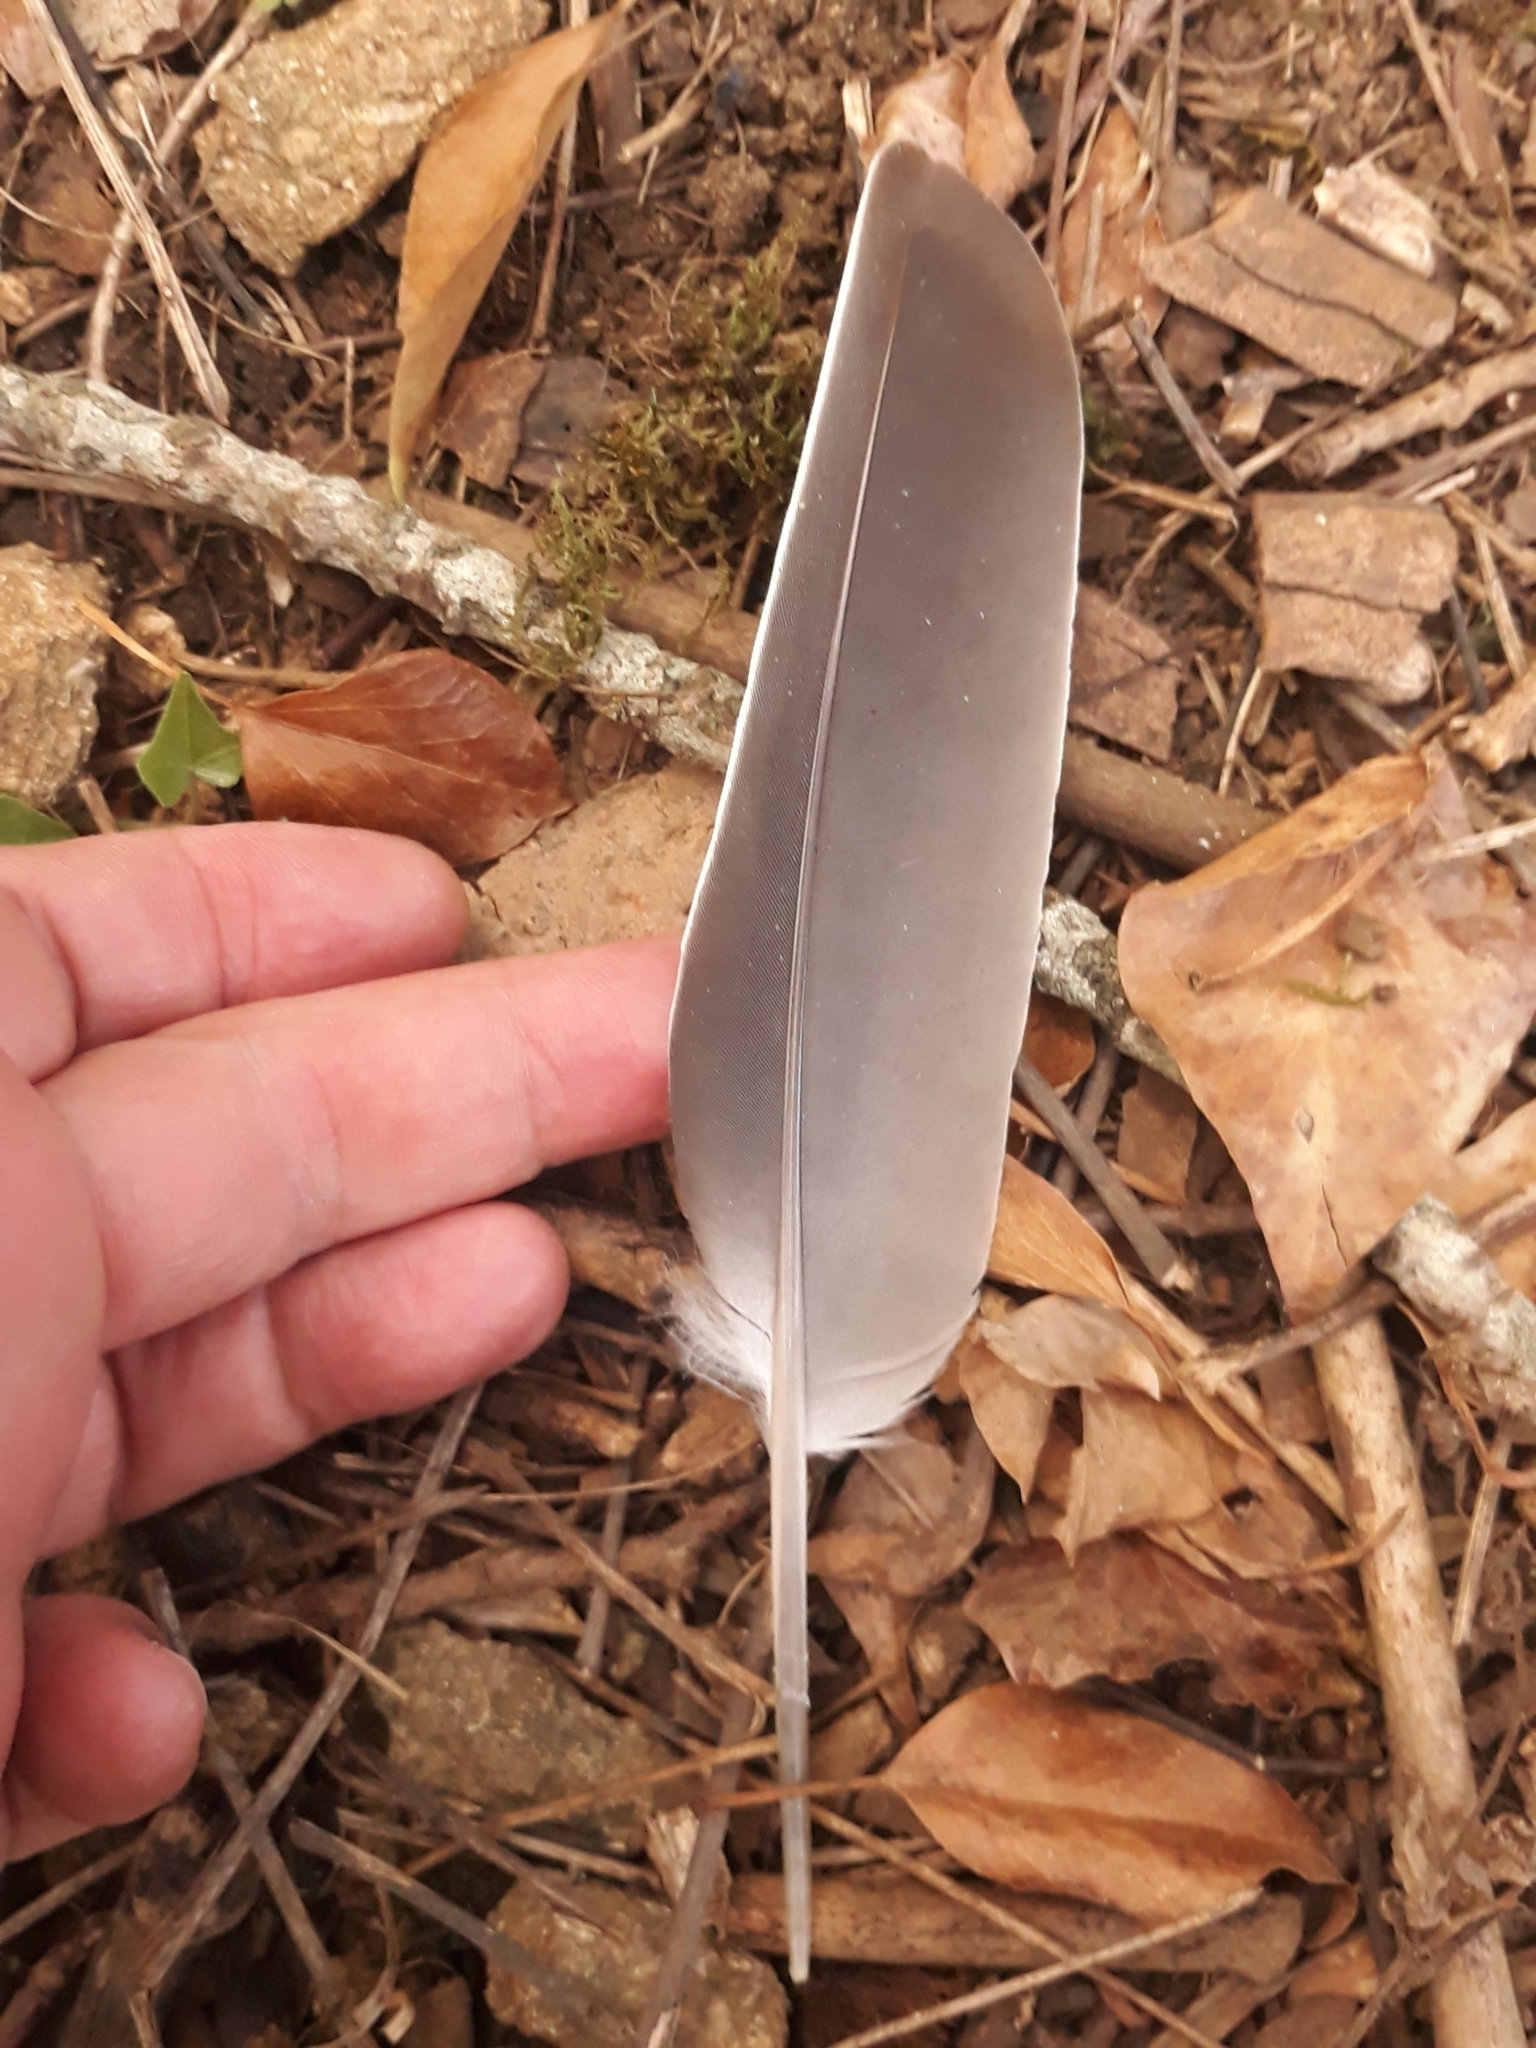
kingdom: Animalia
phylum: Chordata
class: Aves
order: Columbiformes
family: Columbidae
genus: Columba
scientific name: Columba palumbus
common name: Common wood pigeon
